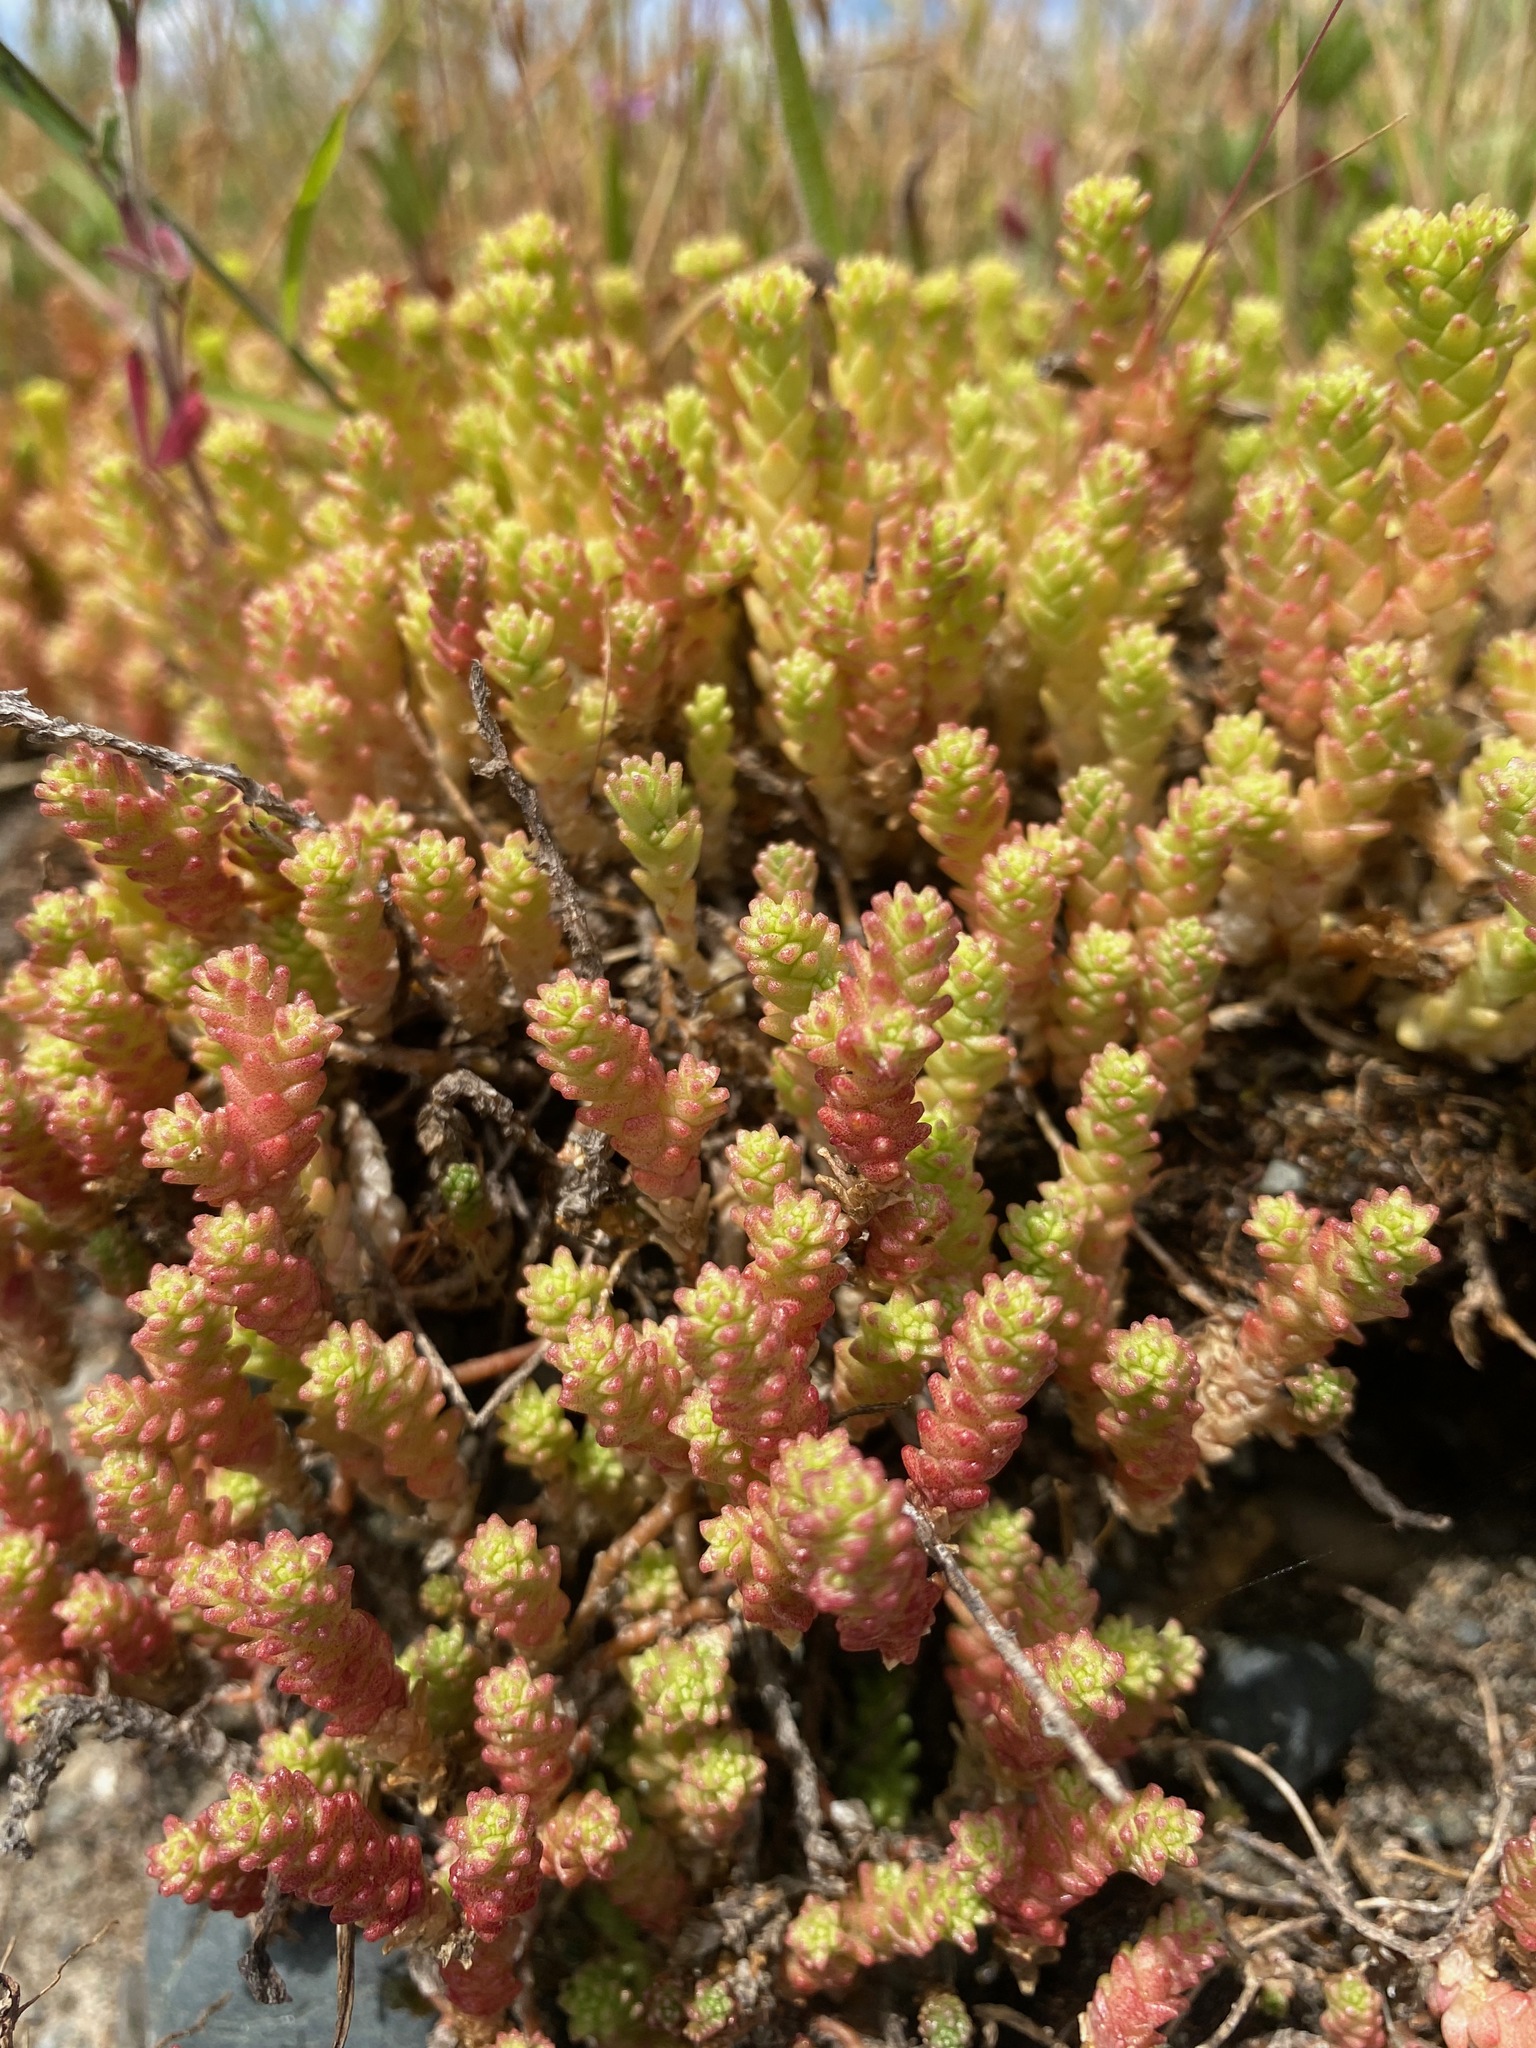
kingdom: Plantae
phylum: Tracheophyta
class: Magnoliopsida
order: Saxifragales
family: Crassulaceae
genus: Sedum
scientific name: Sedum acre
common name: Biting stonecrop
